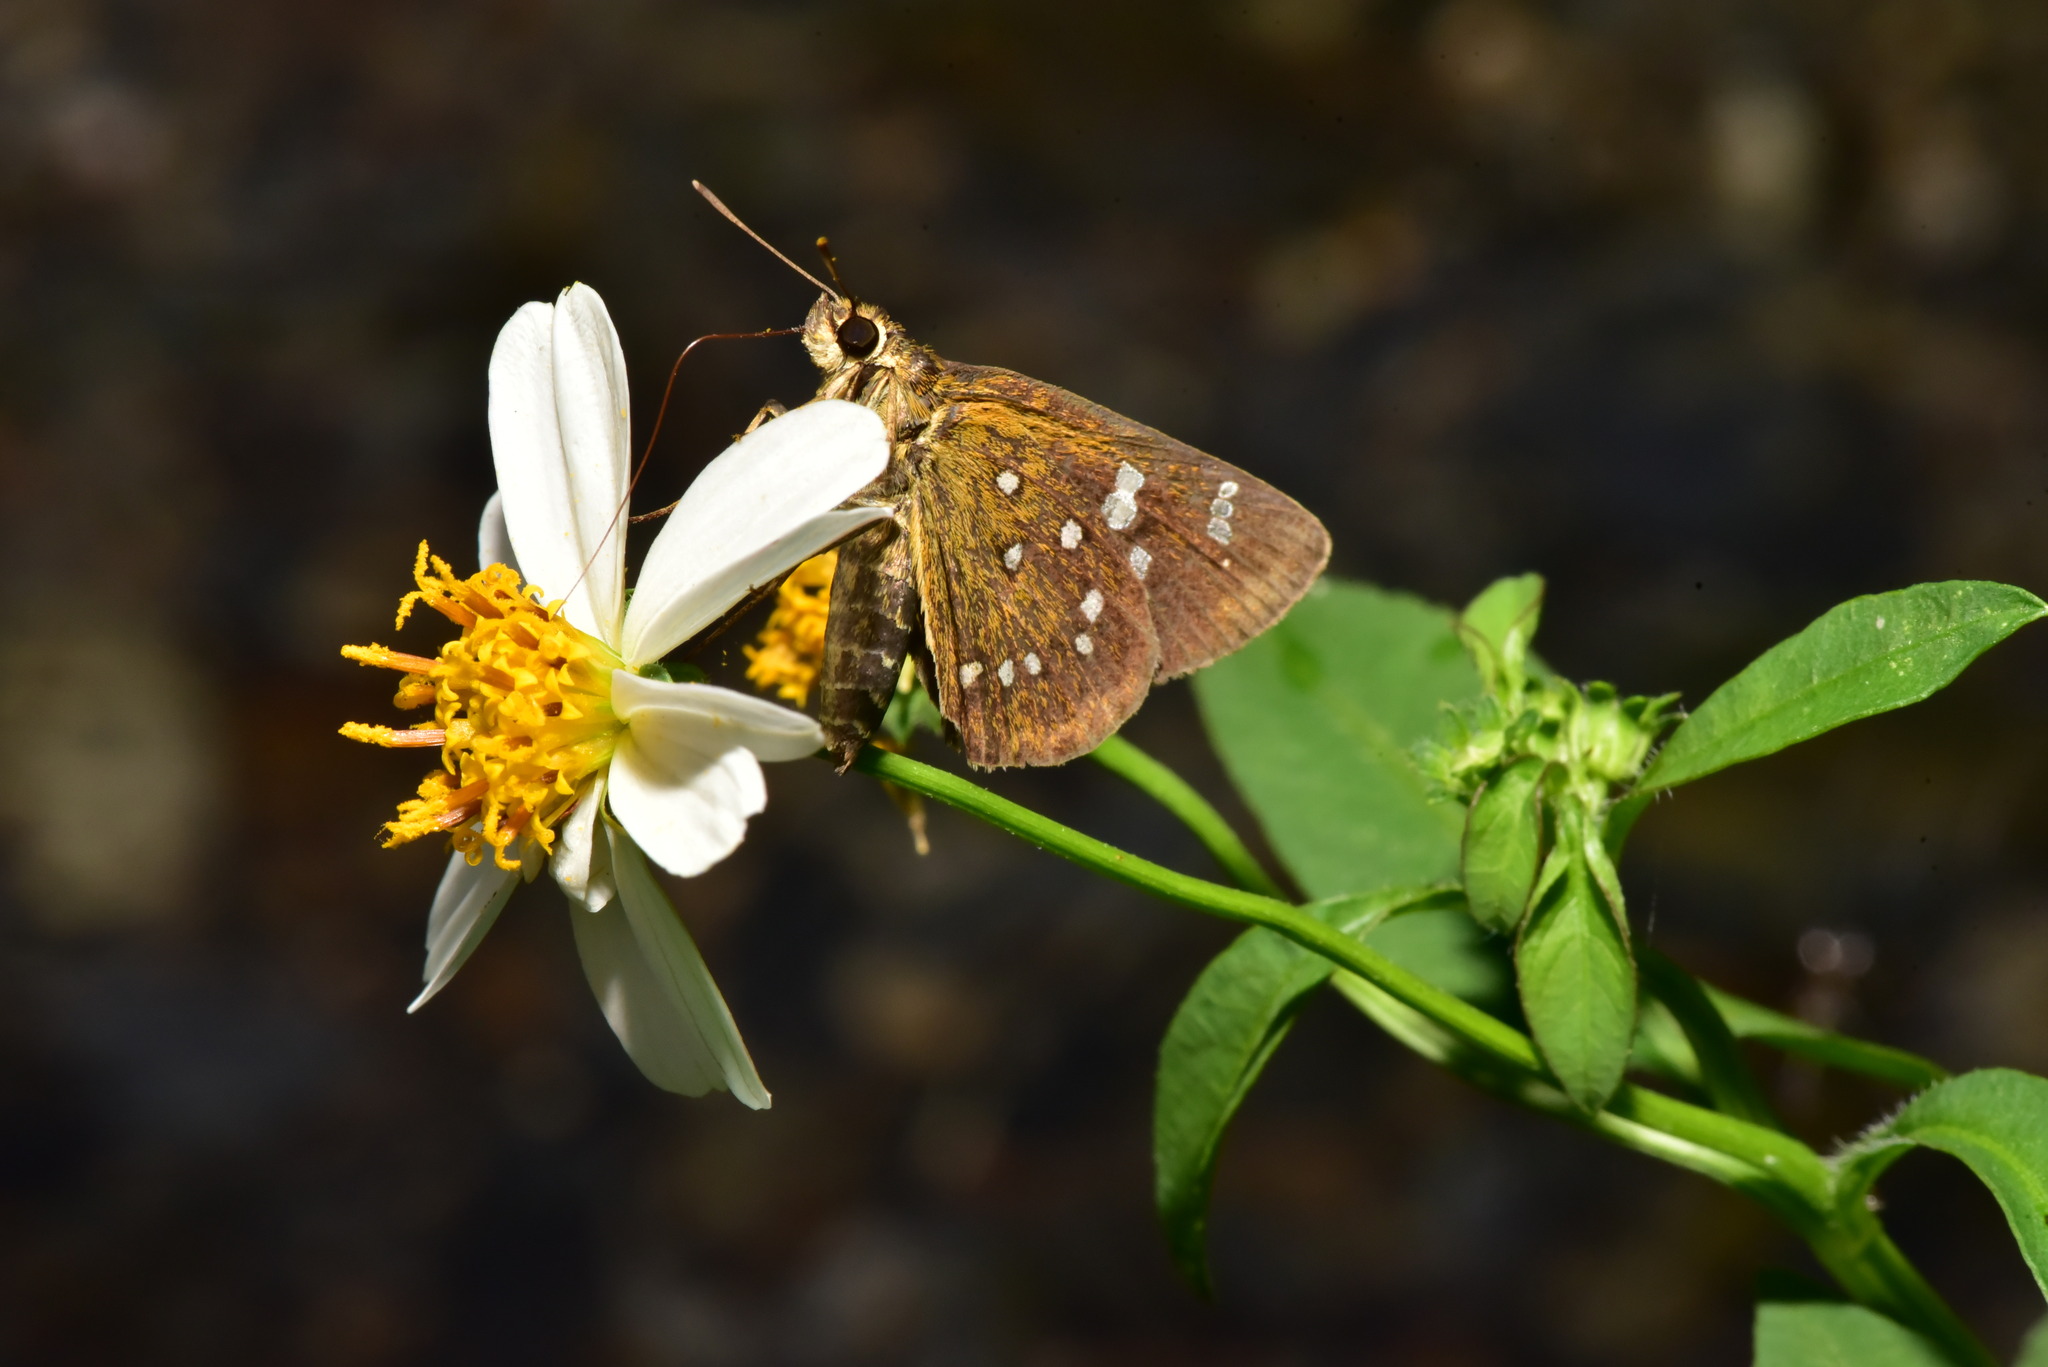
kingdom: Animalia
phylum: Arthropoda
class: Insecta
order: Lepidoptera
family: Hesperiidae
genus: Isoteinon
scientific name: Isoteinon lamprospilus
